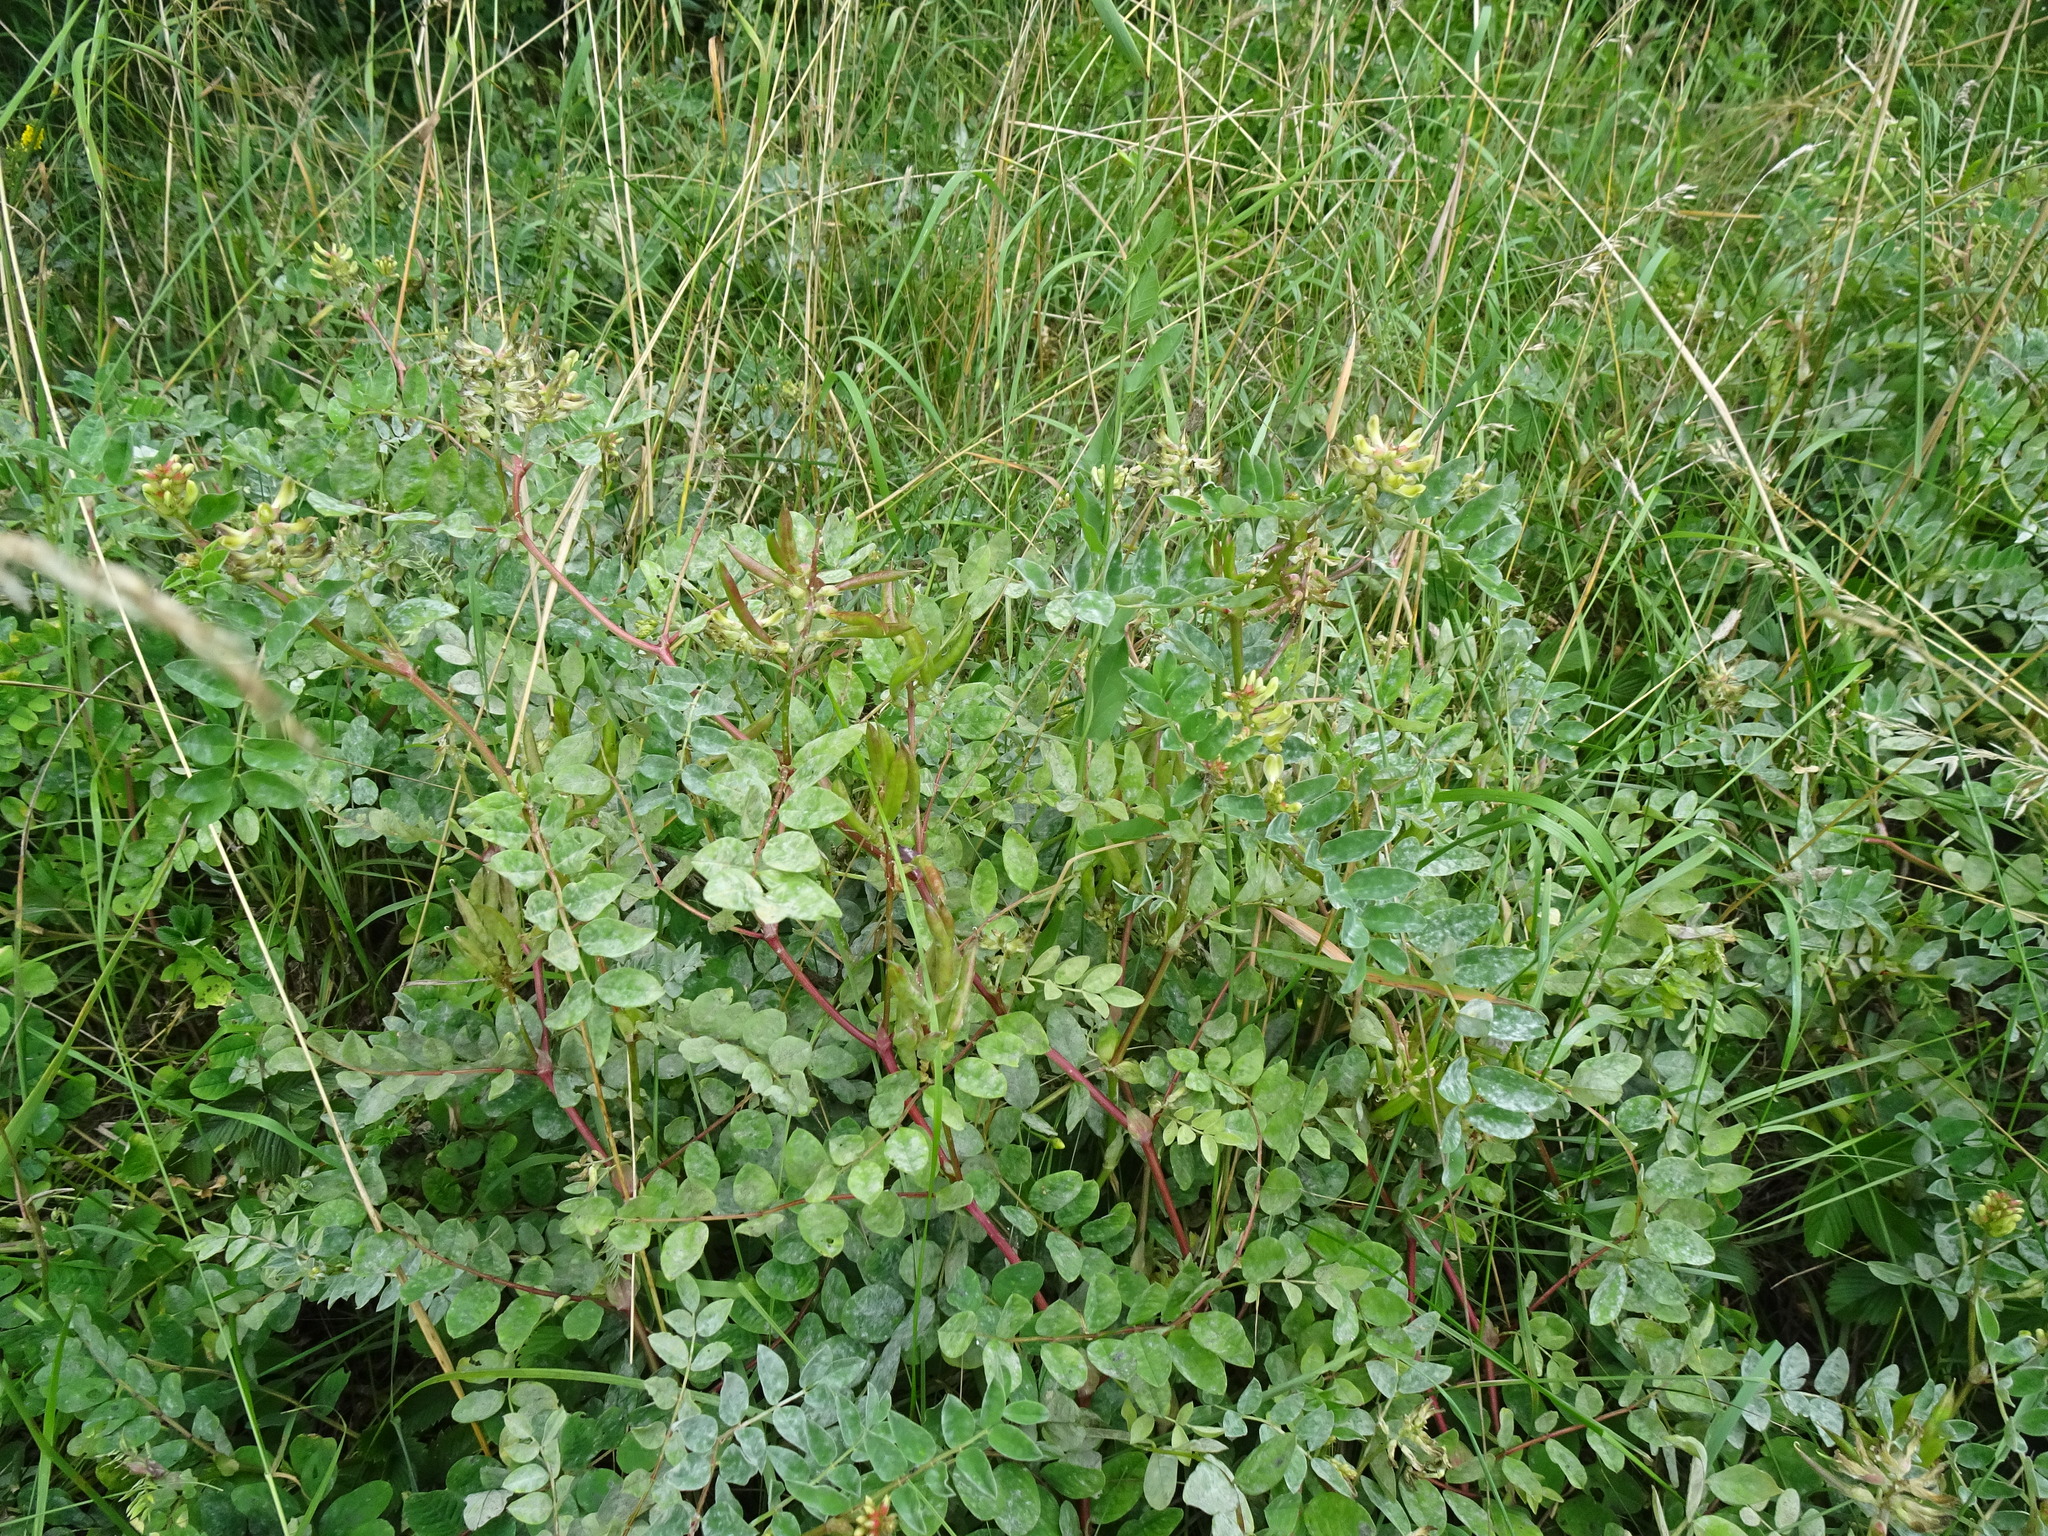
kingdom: Plantae
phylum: Tracheophyta
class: Magnoliopsida
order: Fabales
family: Fabaceae
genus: Astragalus
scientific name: Astragalus glycyphyllos
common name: Wild liquorice
